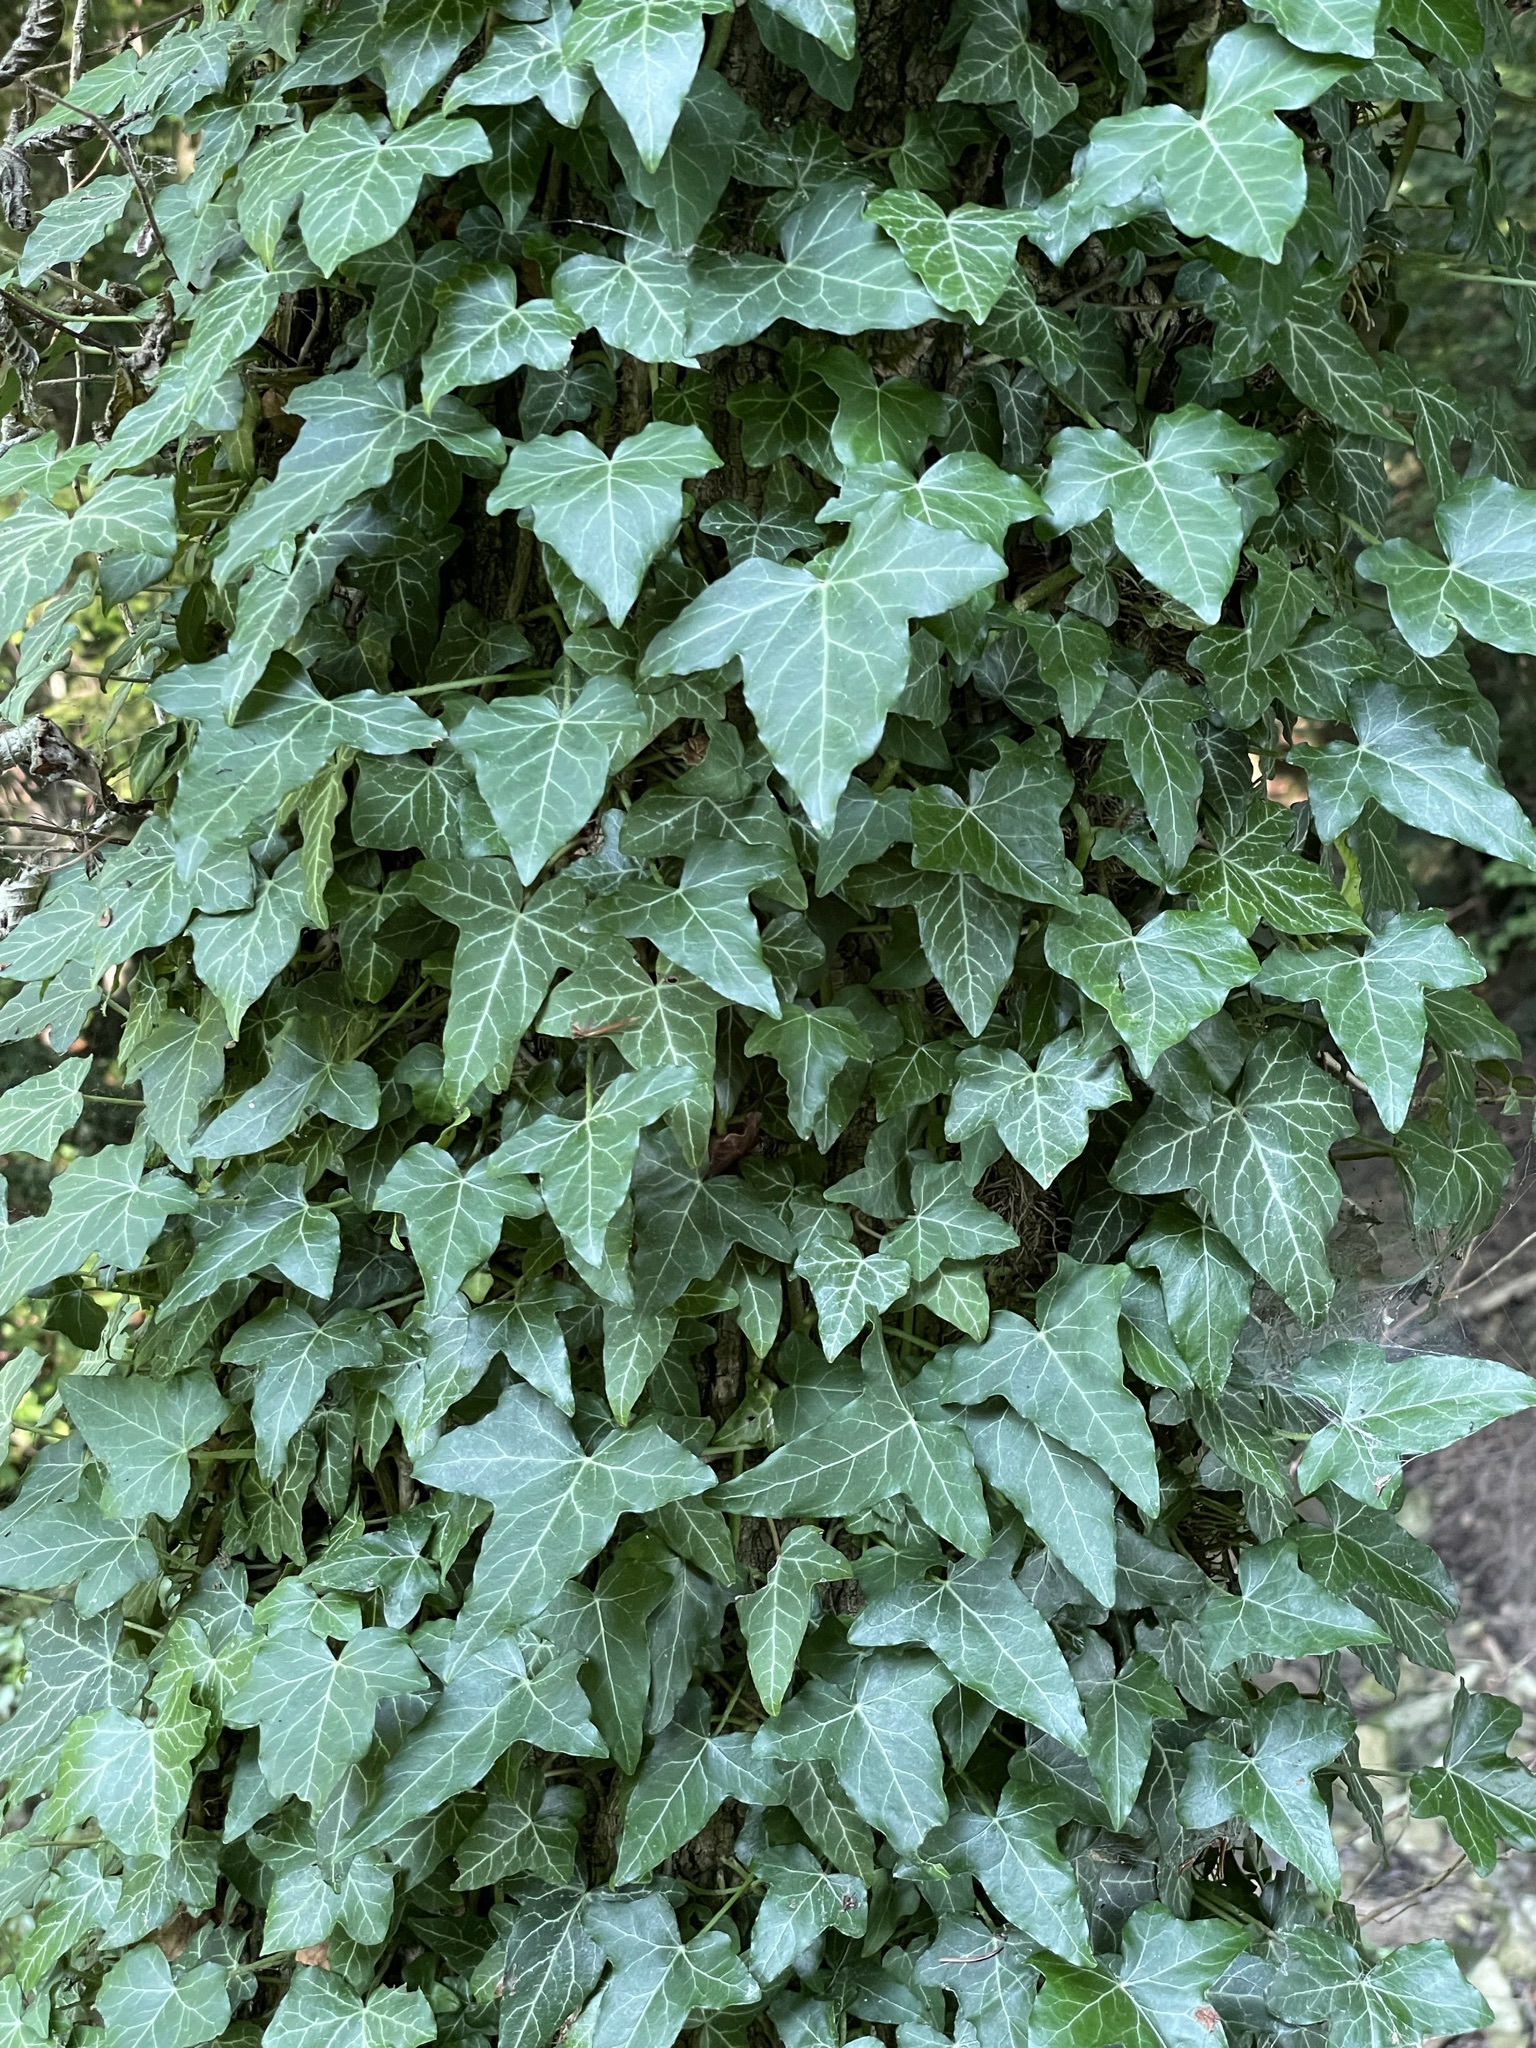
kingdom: Plantae
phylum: Tracheophyta
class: Magnoliopsida
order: Apiales
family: Araliaceae
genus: Hedera
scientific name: Hedera helix
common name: Ivy
